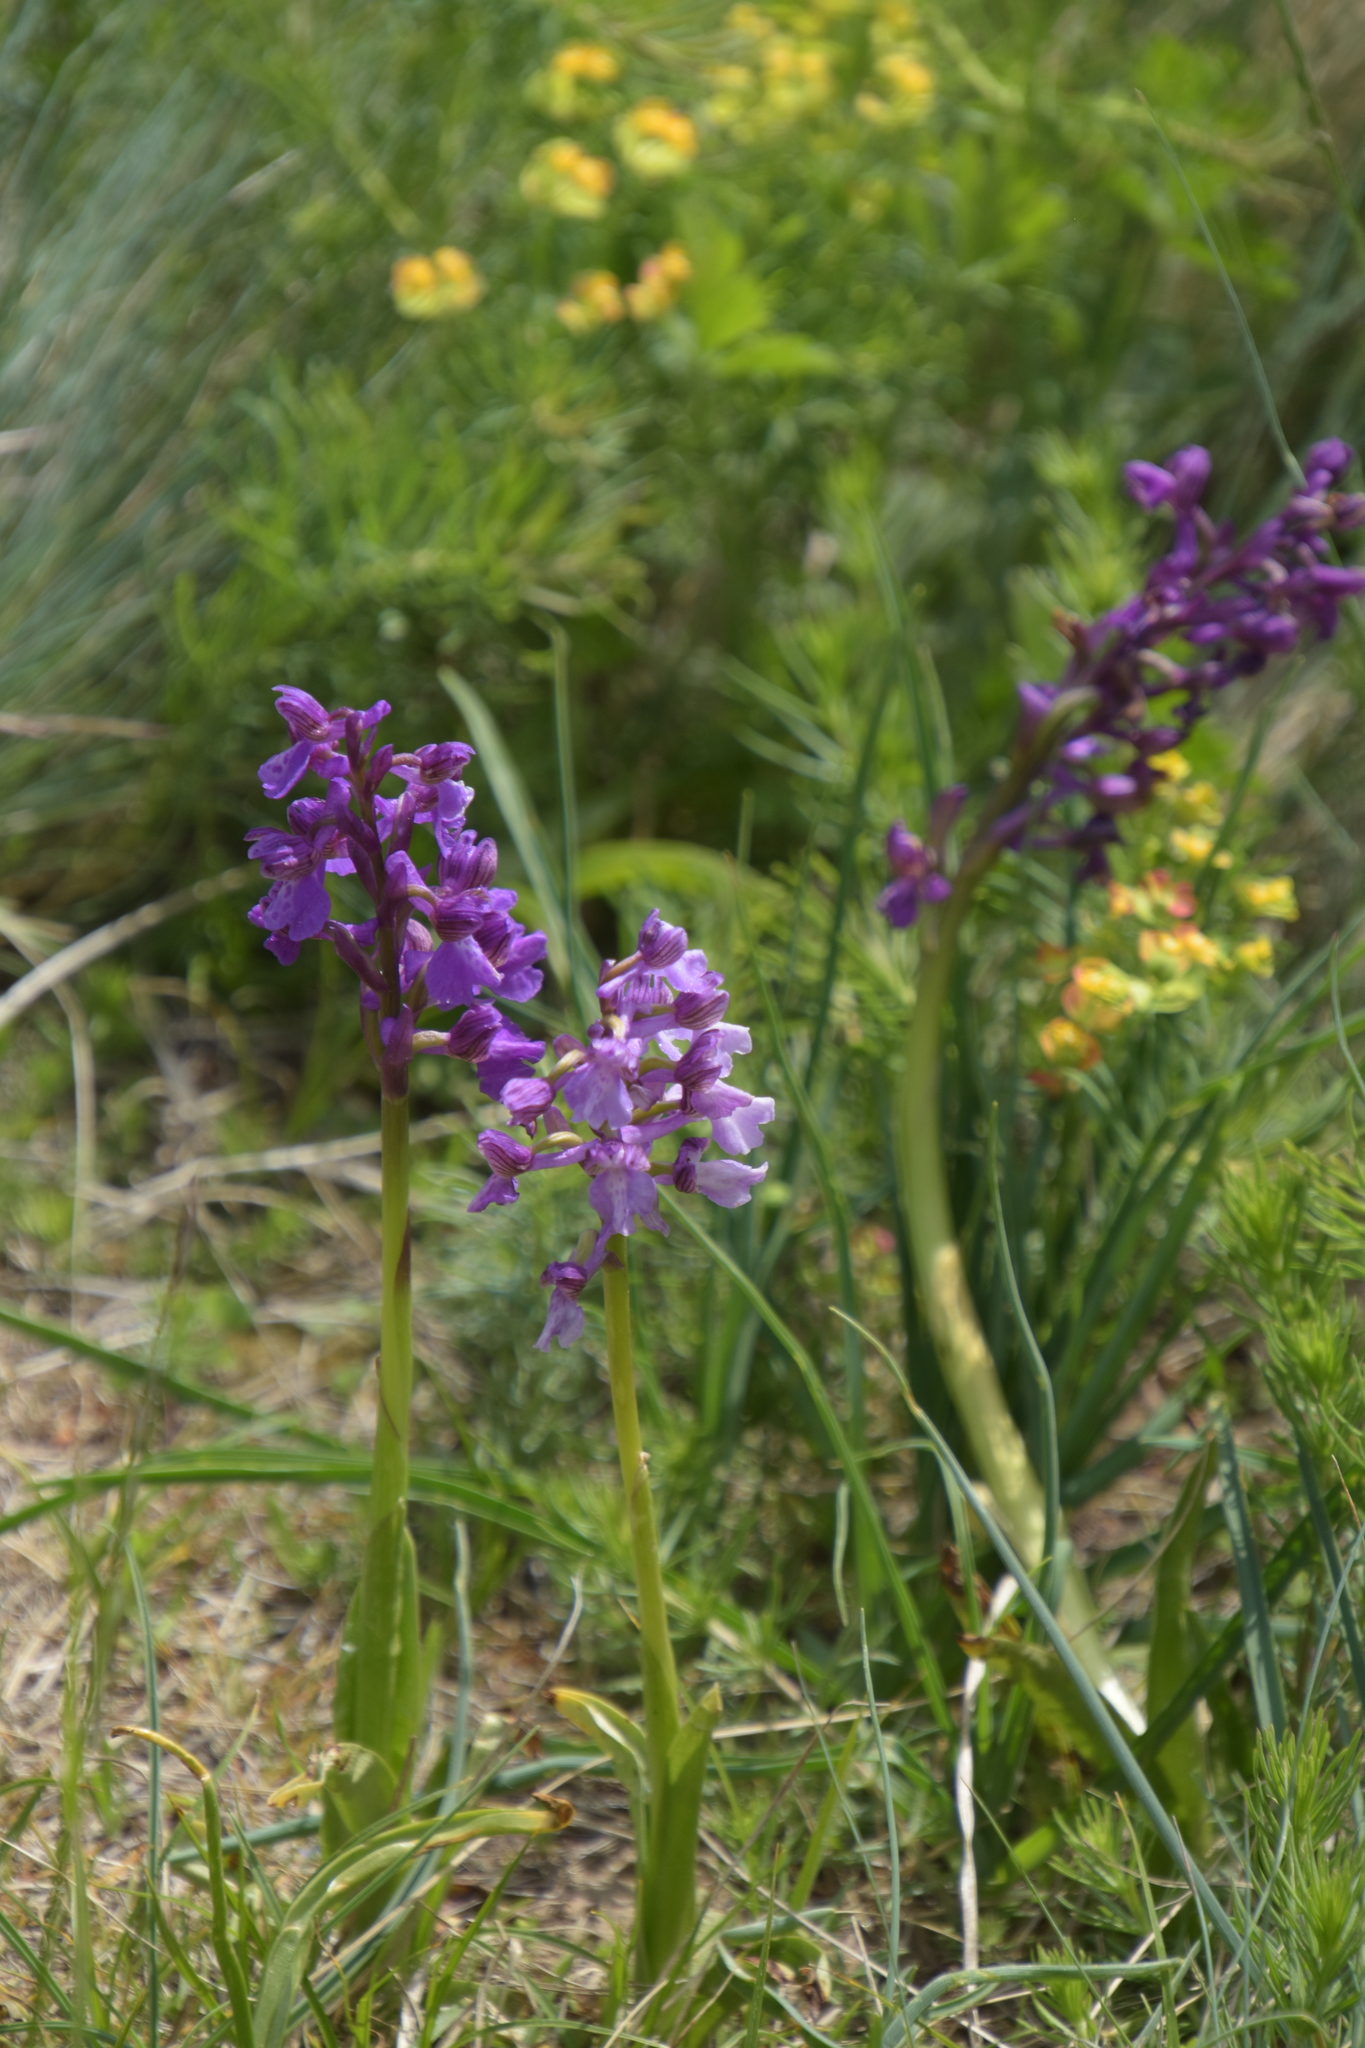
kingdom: Plantae
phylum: Tracheophyta
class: Liliopsida
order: Asparagales
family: Orchidaceae
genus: Anacamptis
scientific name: Anacamptis morio
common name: Green-winged orchid
